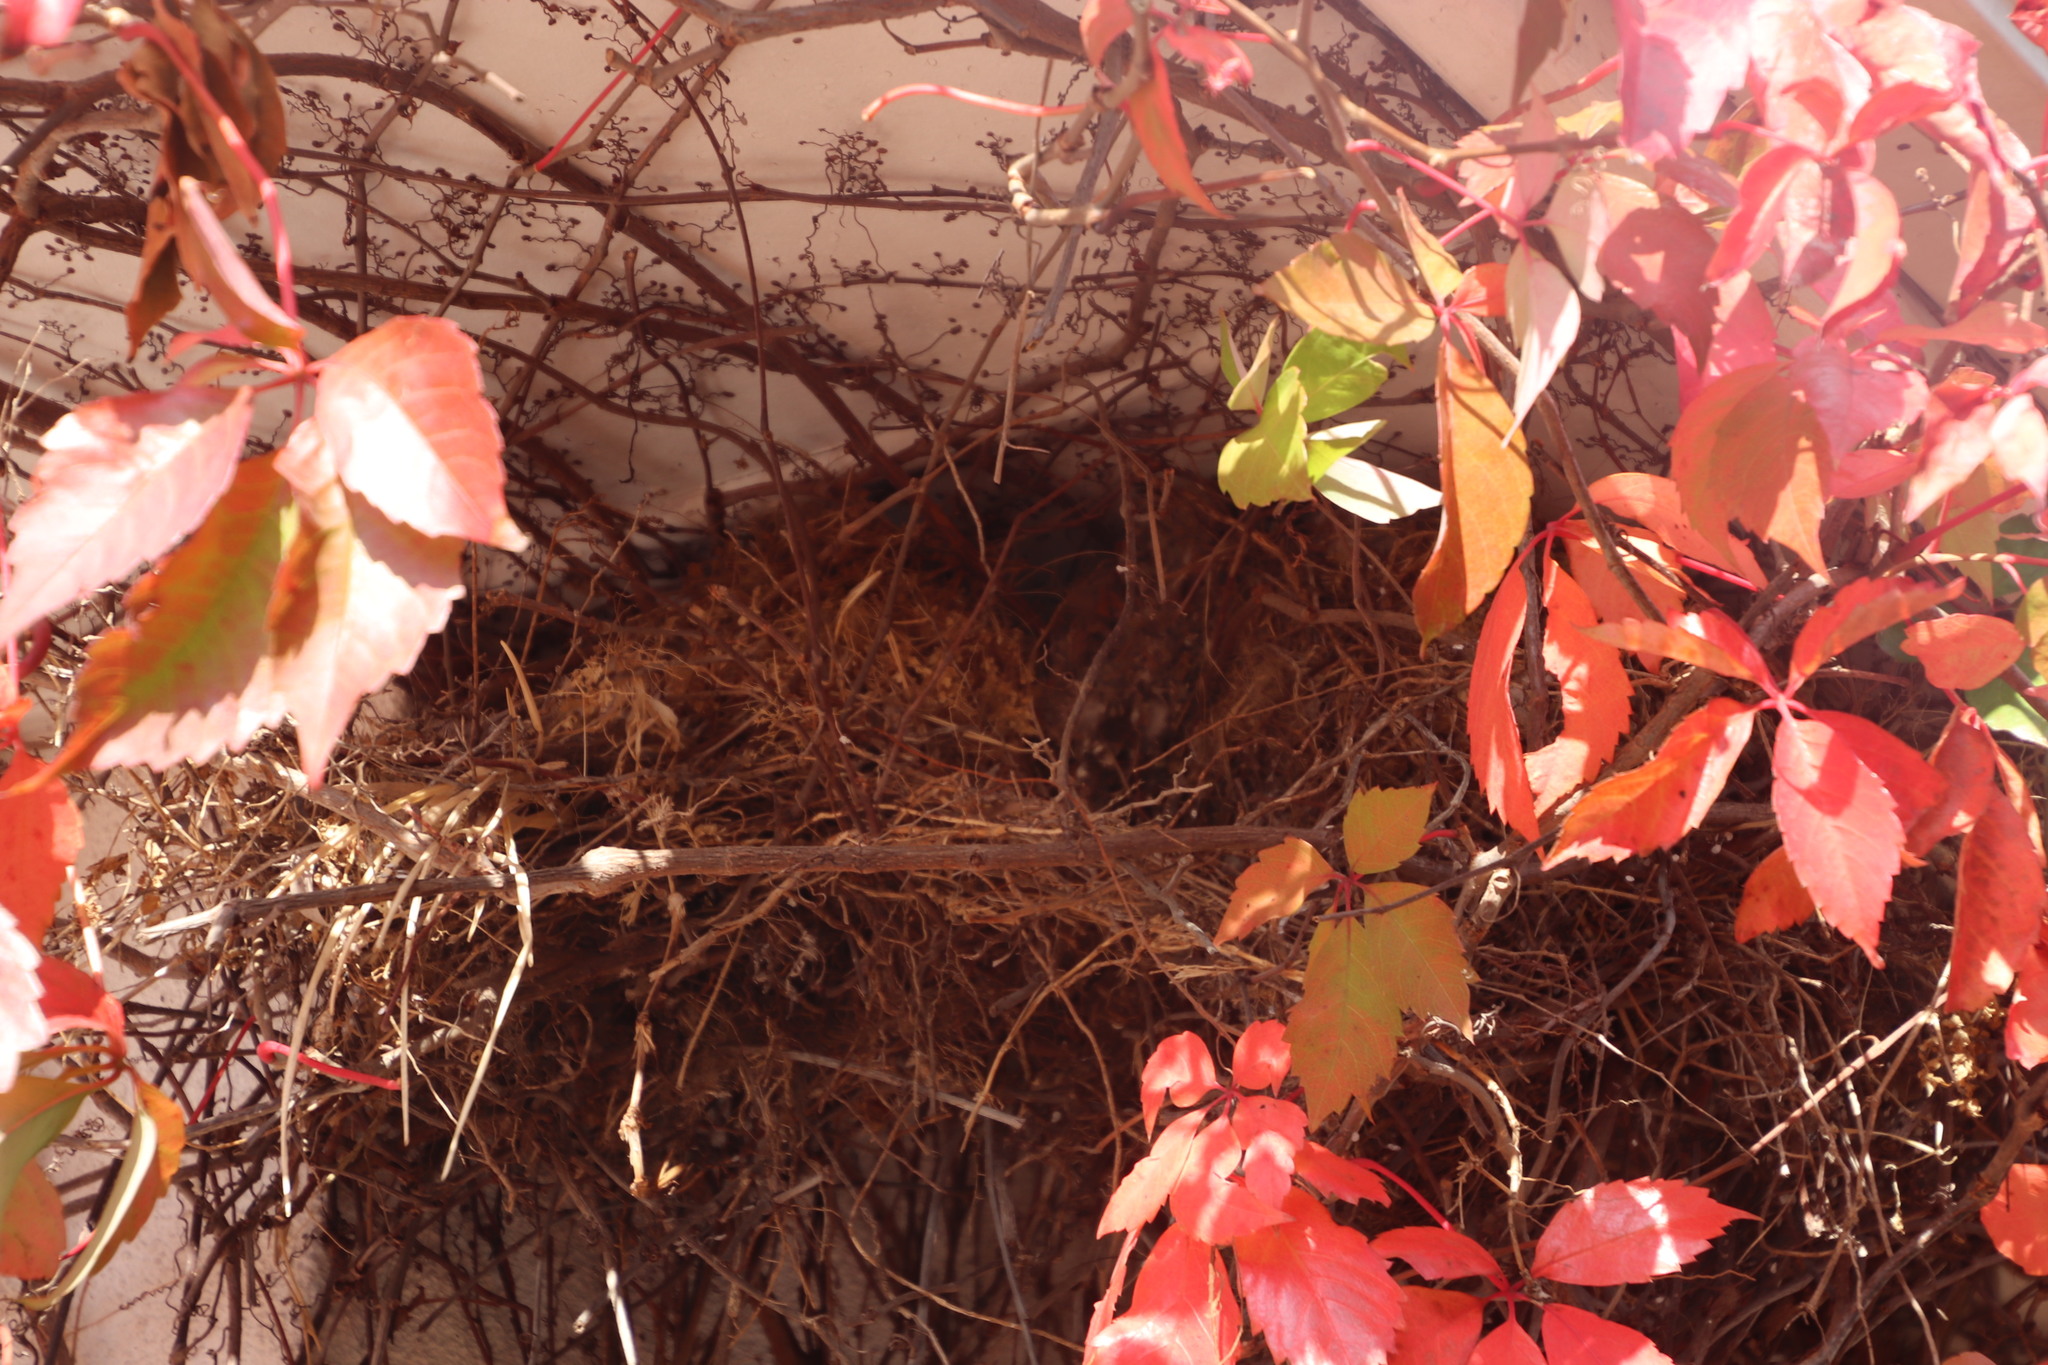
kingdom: Animalia
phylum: Chordata
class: Aves
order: Passeriformes
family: Passeridae
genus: Passer
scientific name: Passer melanurus
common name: Cape sparrow
